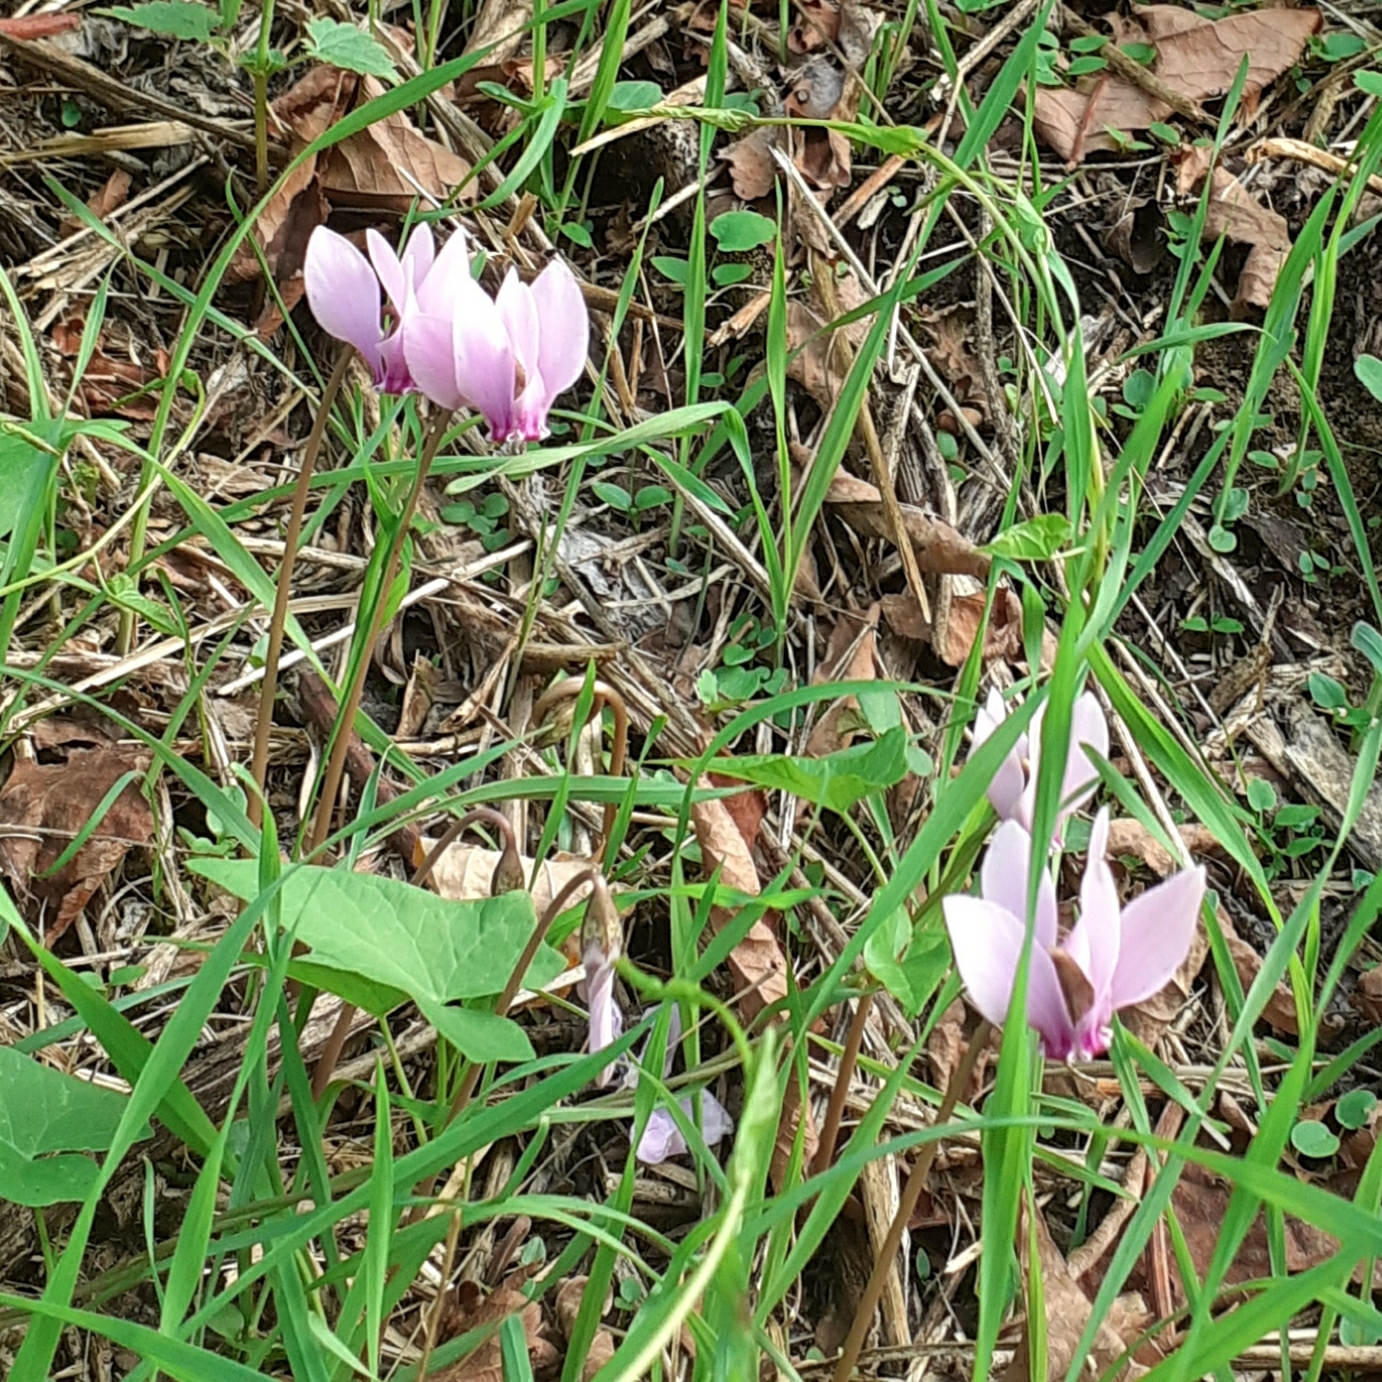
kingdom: Plantae
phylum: Tracheophyta
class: Magnoliopsida
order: Ericales
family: Primulaceae
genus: Cyclamen
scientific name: Cyclamen hederifolium
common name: Sowbread
